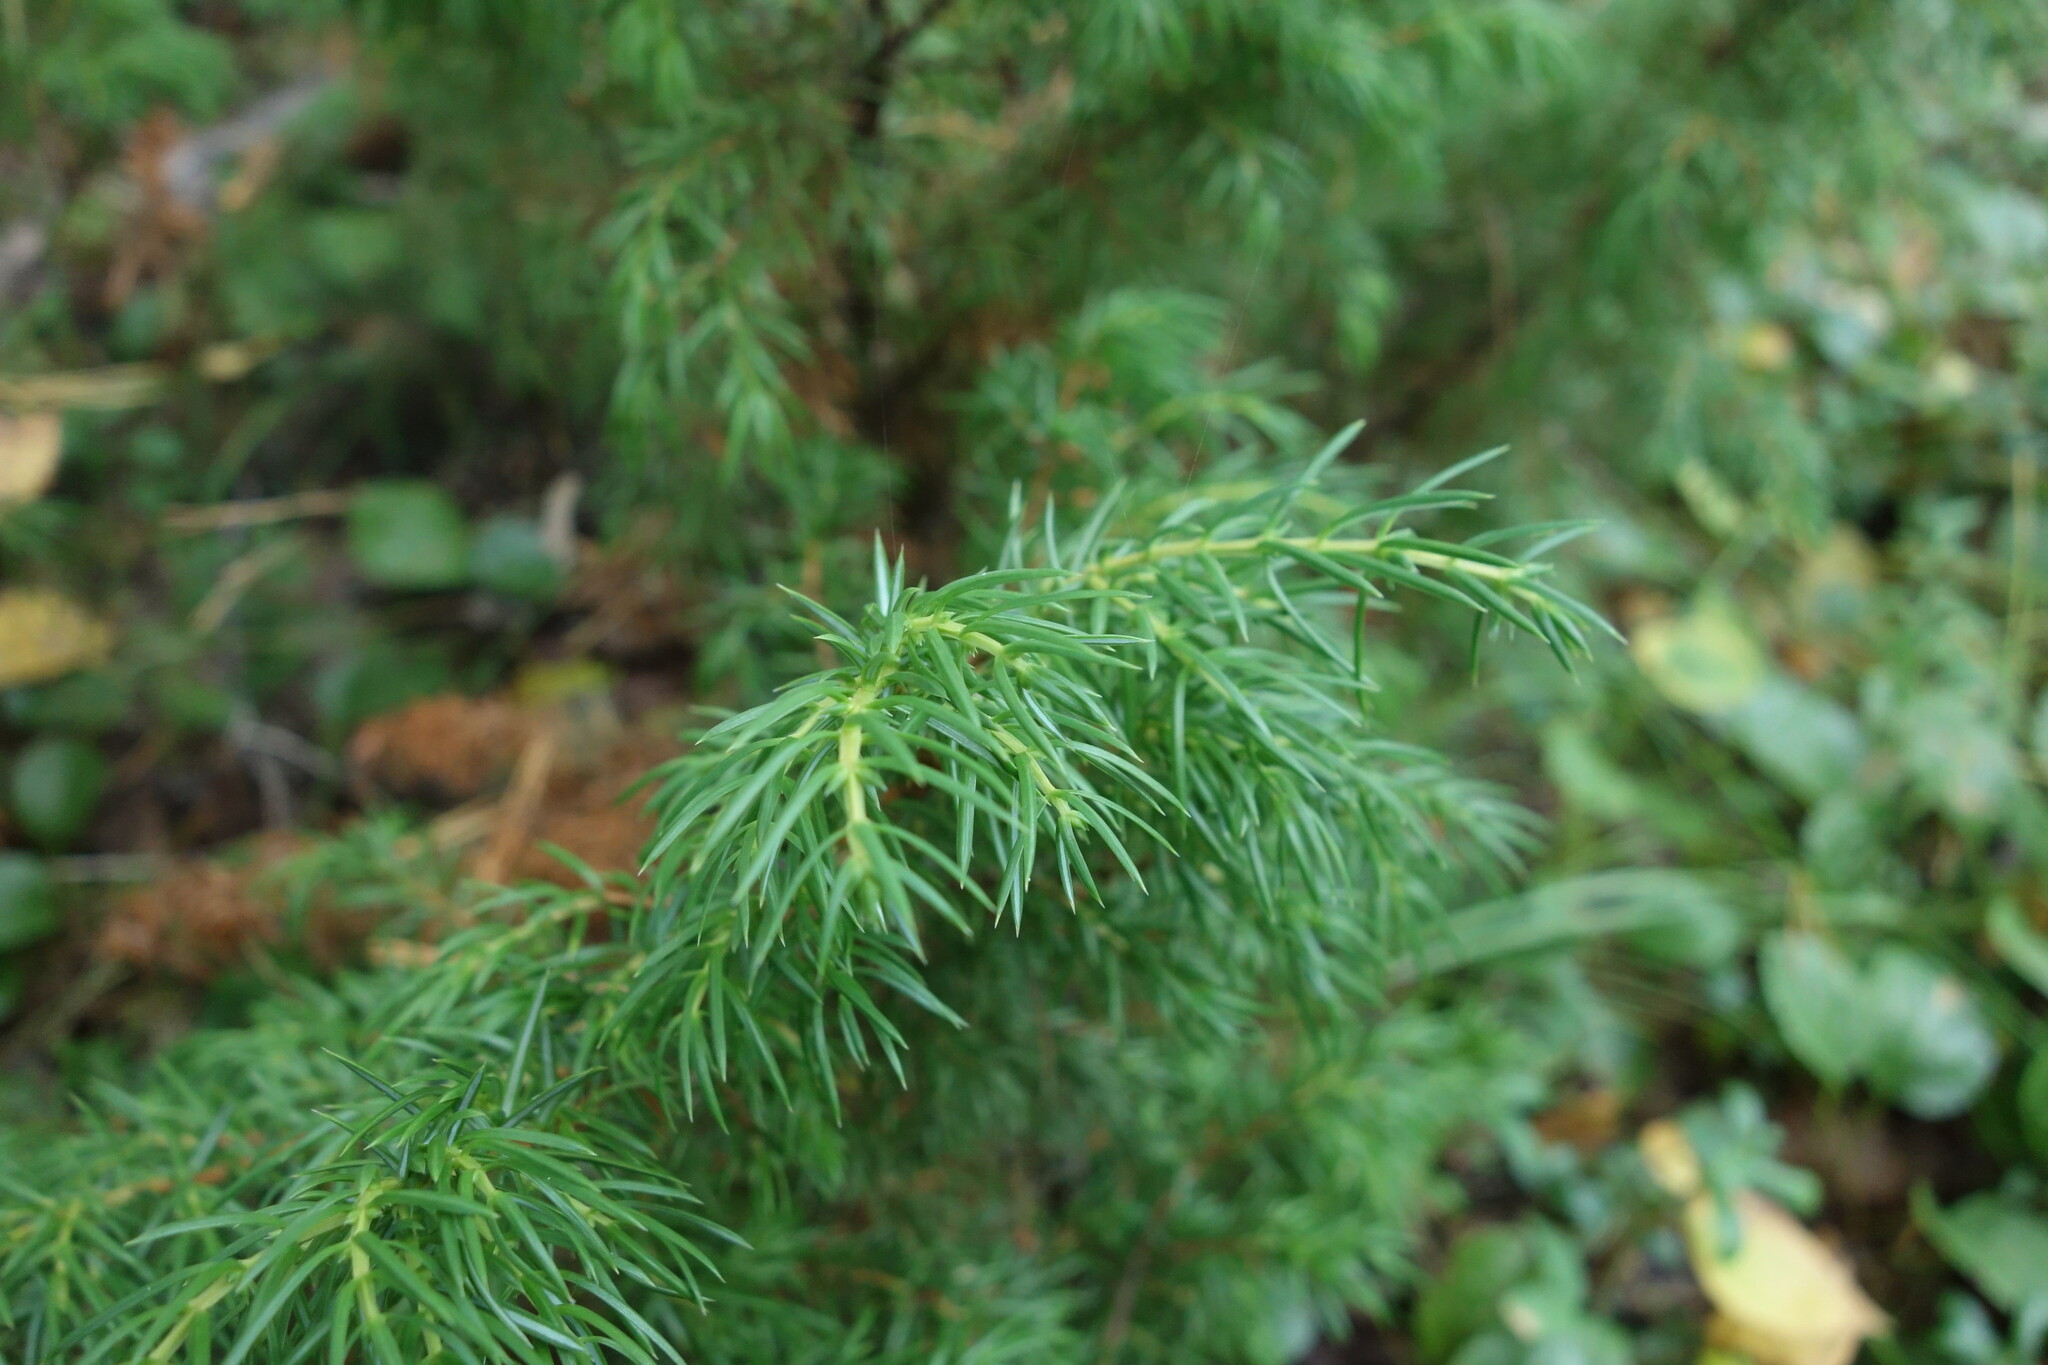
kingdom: Plantae
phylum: Tracheophyta
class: Pinopsida
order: Pinales
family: Cupressaceae
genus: Juniperus
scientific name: Juniperus communis
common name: Common juniper
